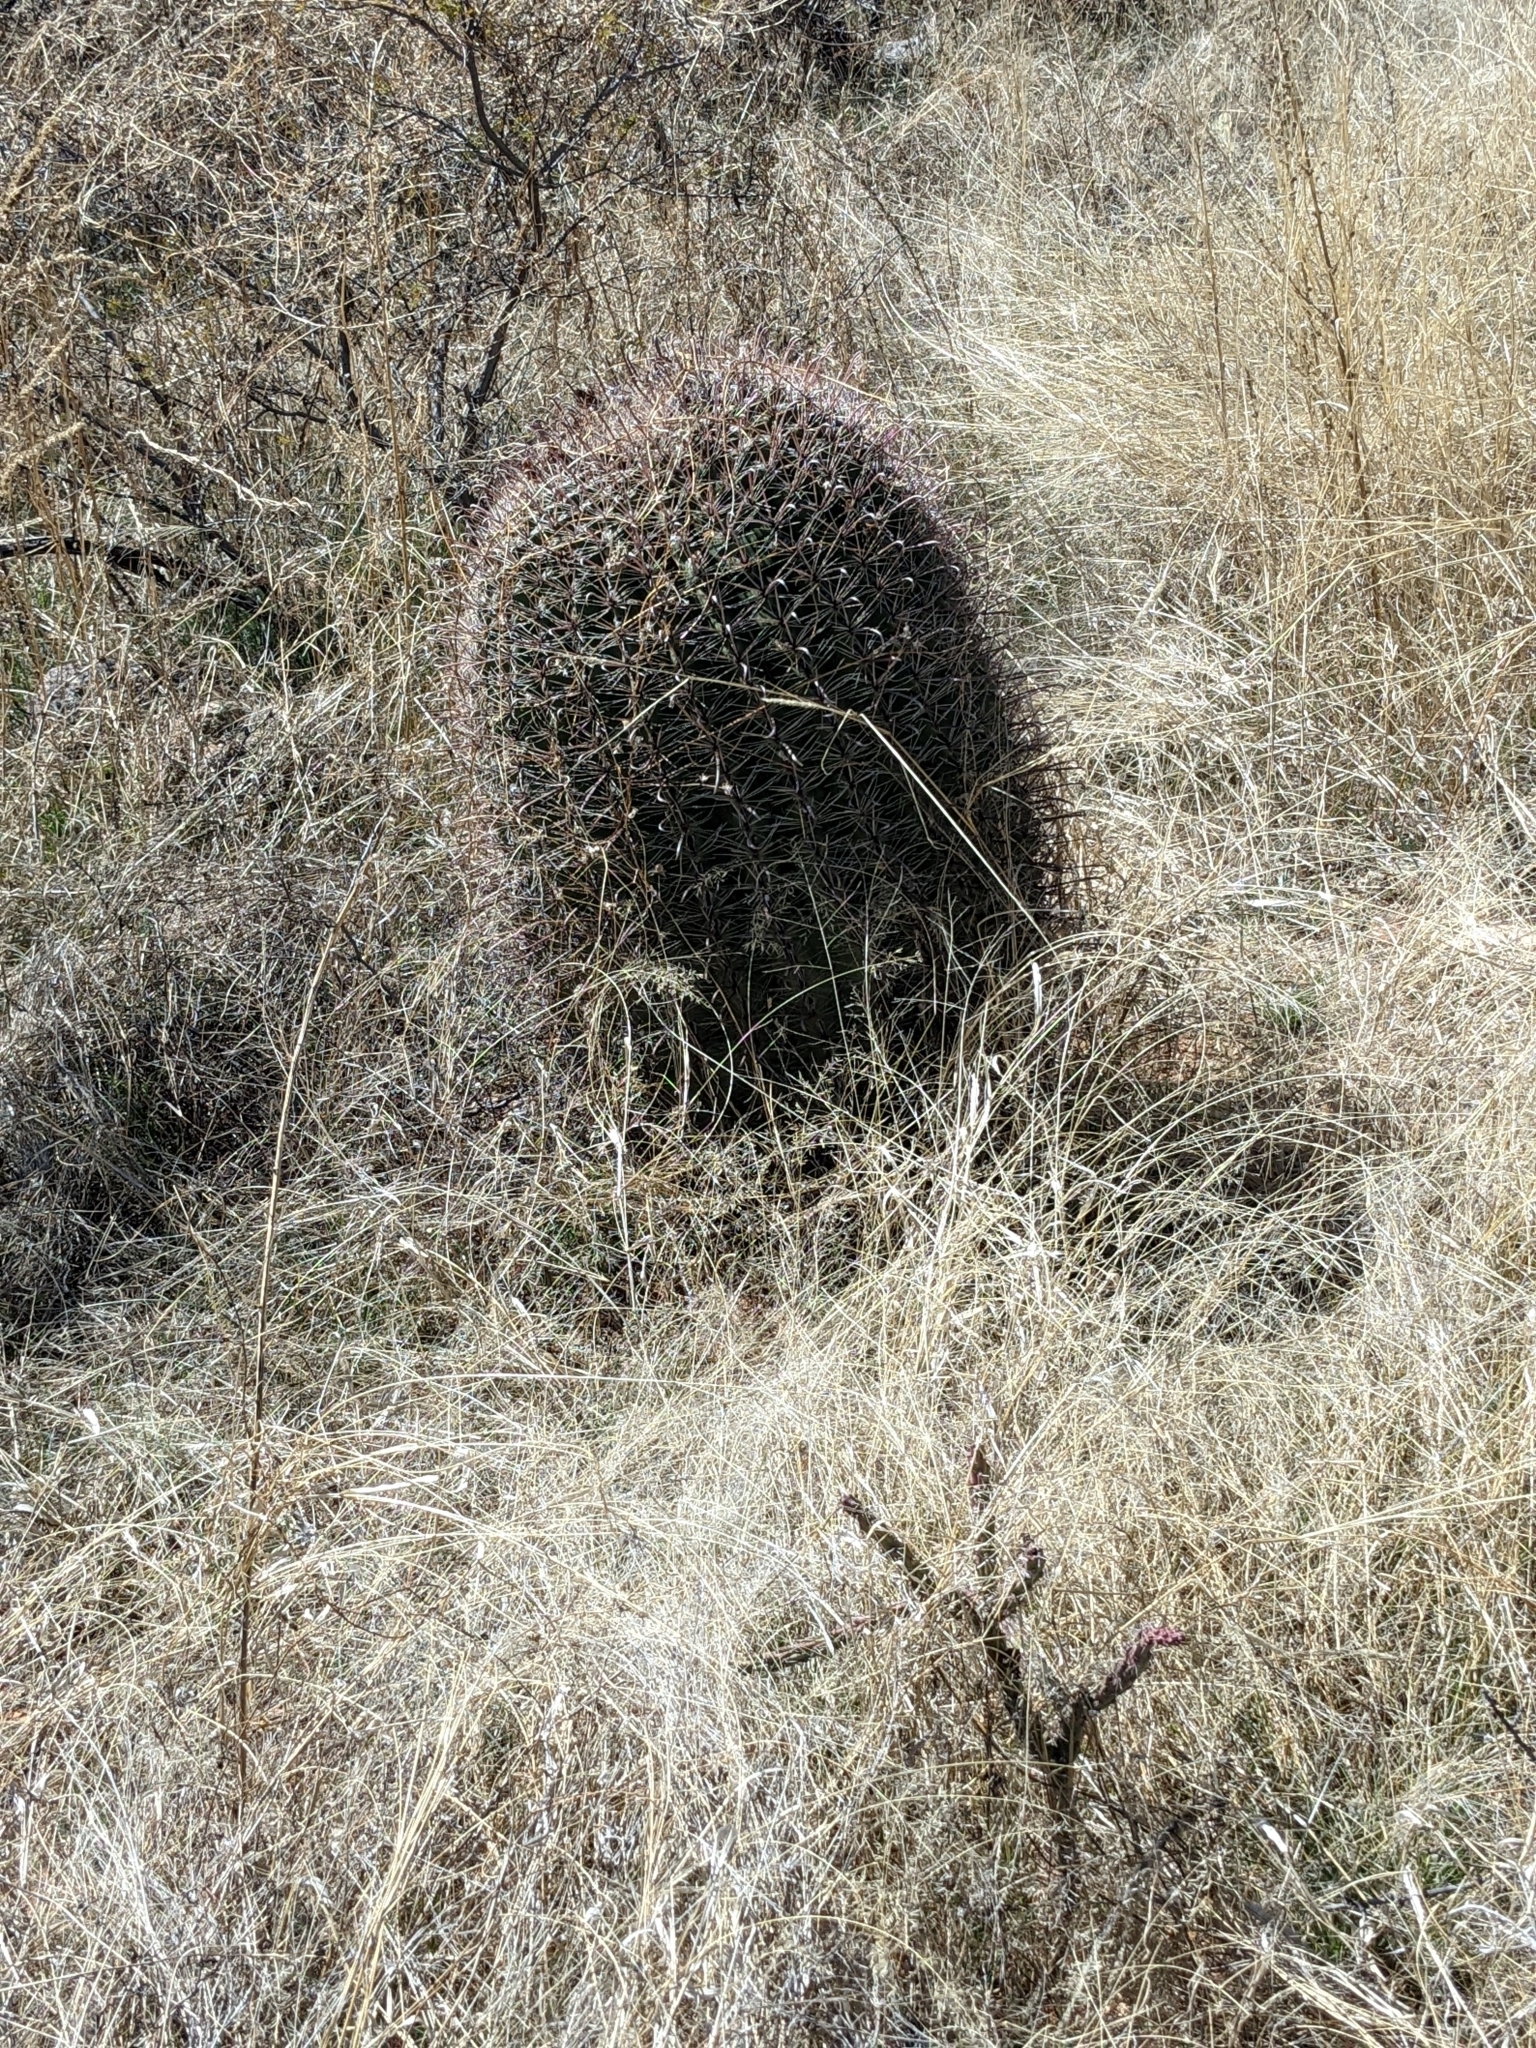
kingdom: Plantae
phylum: Tracheophyta
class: Magnoliopsida
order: Caryophyllales
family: Cactaceae
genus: Ferocactus
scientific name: Ferocactus wislizeni
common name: Candy barrel cactus
